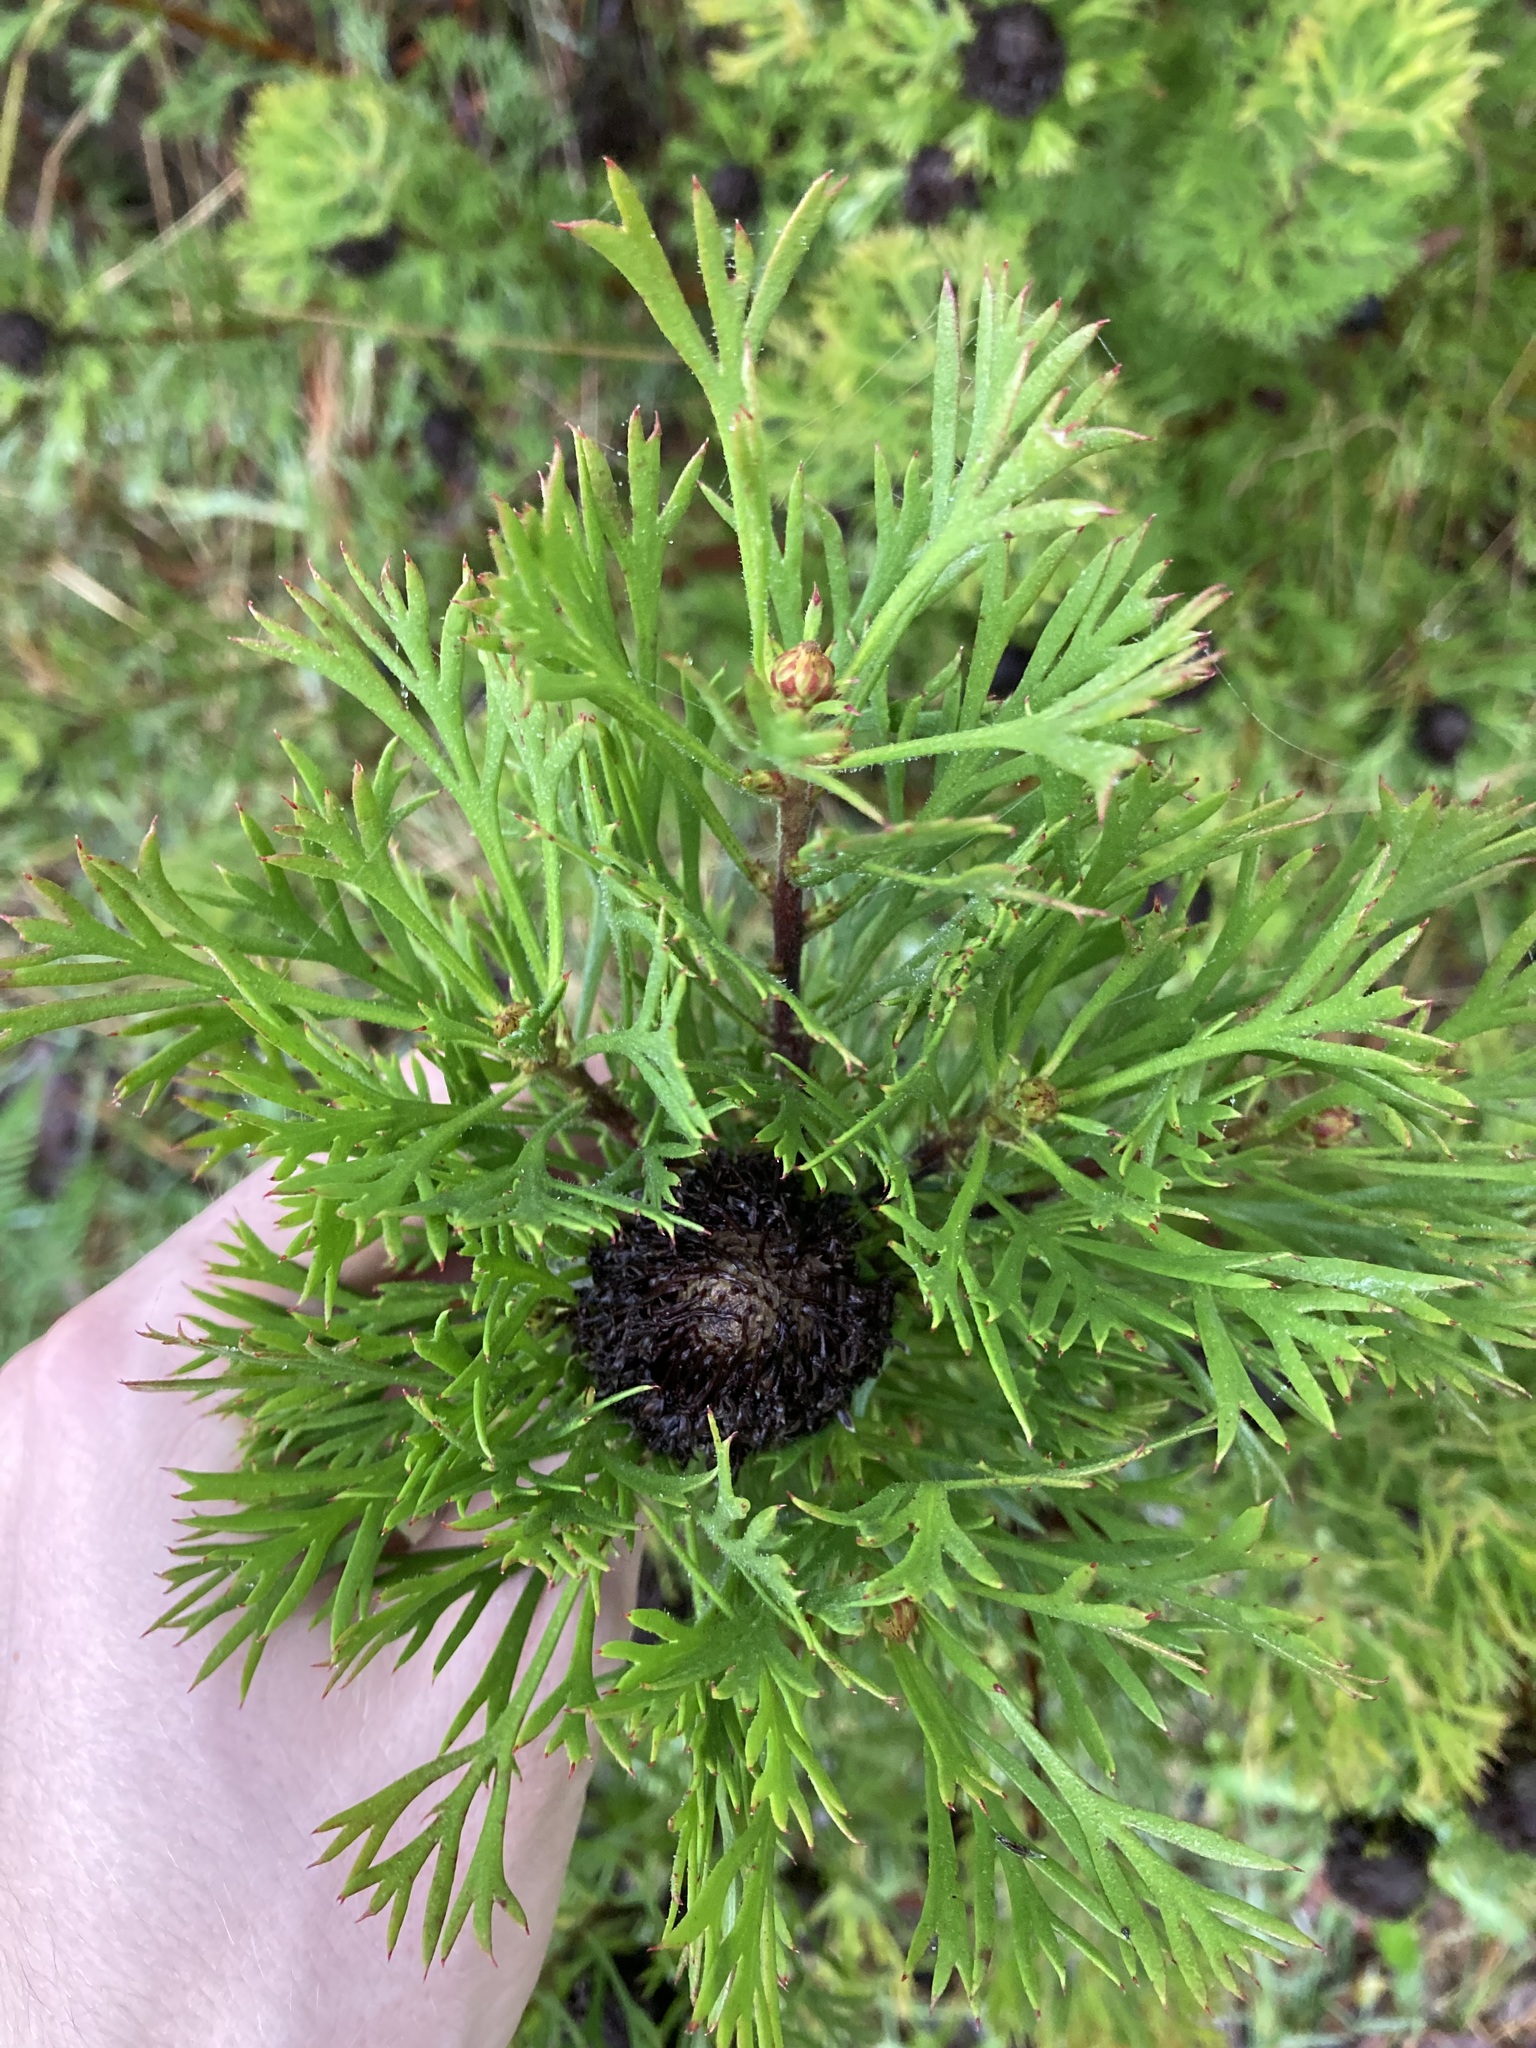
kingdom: Plantae
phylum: Tracheophyta
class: Magnoliopsida
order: Proteales
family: Proteaceae
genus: Isopogon
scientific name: Isopogon anemonifolius
